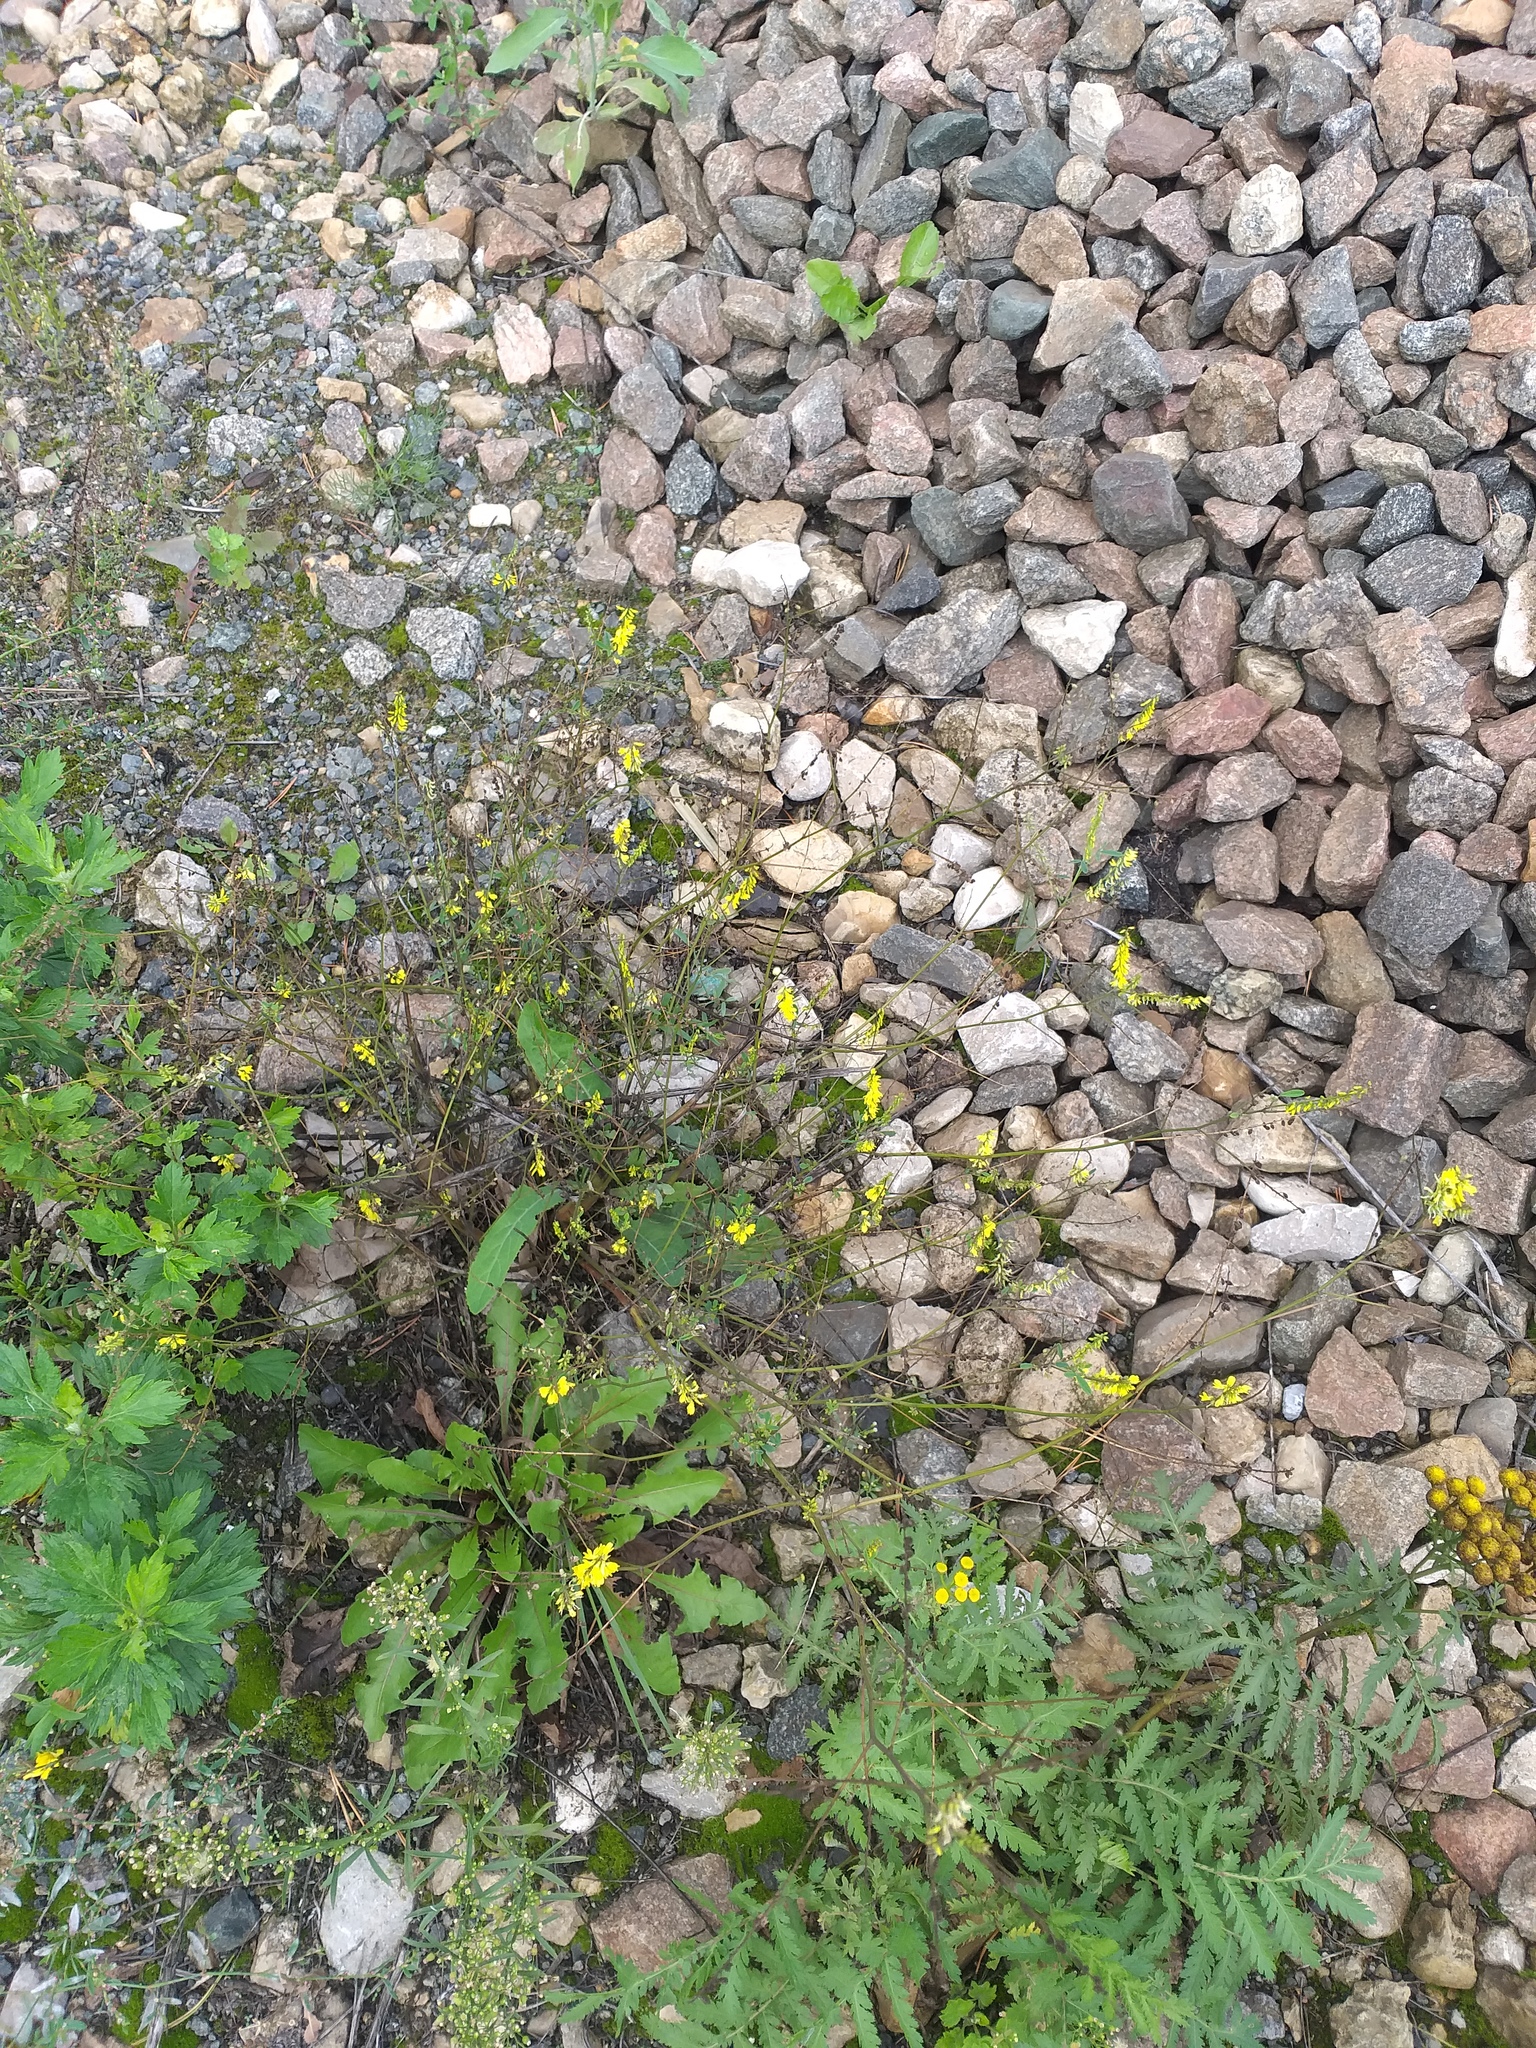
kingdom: Plantae
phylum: Tracheophyta
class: Magnoliopsida
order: Fabales
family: Fabaceae
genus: Melilotus
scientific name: Melilotus officinalis
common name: Sweetclover
